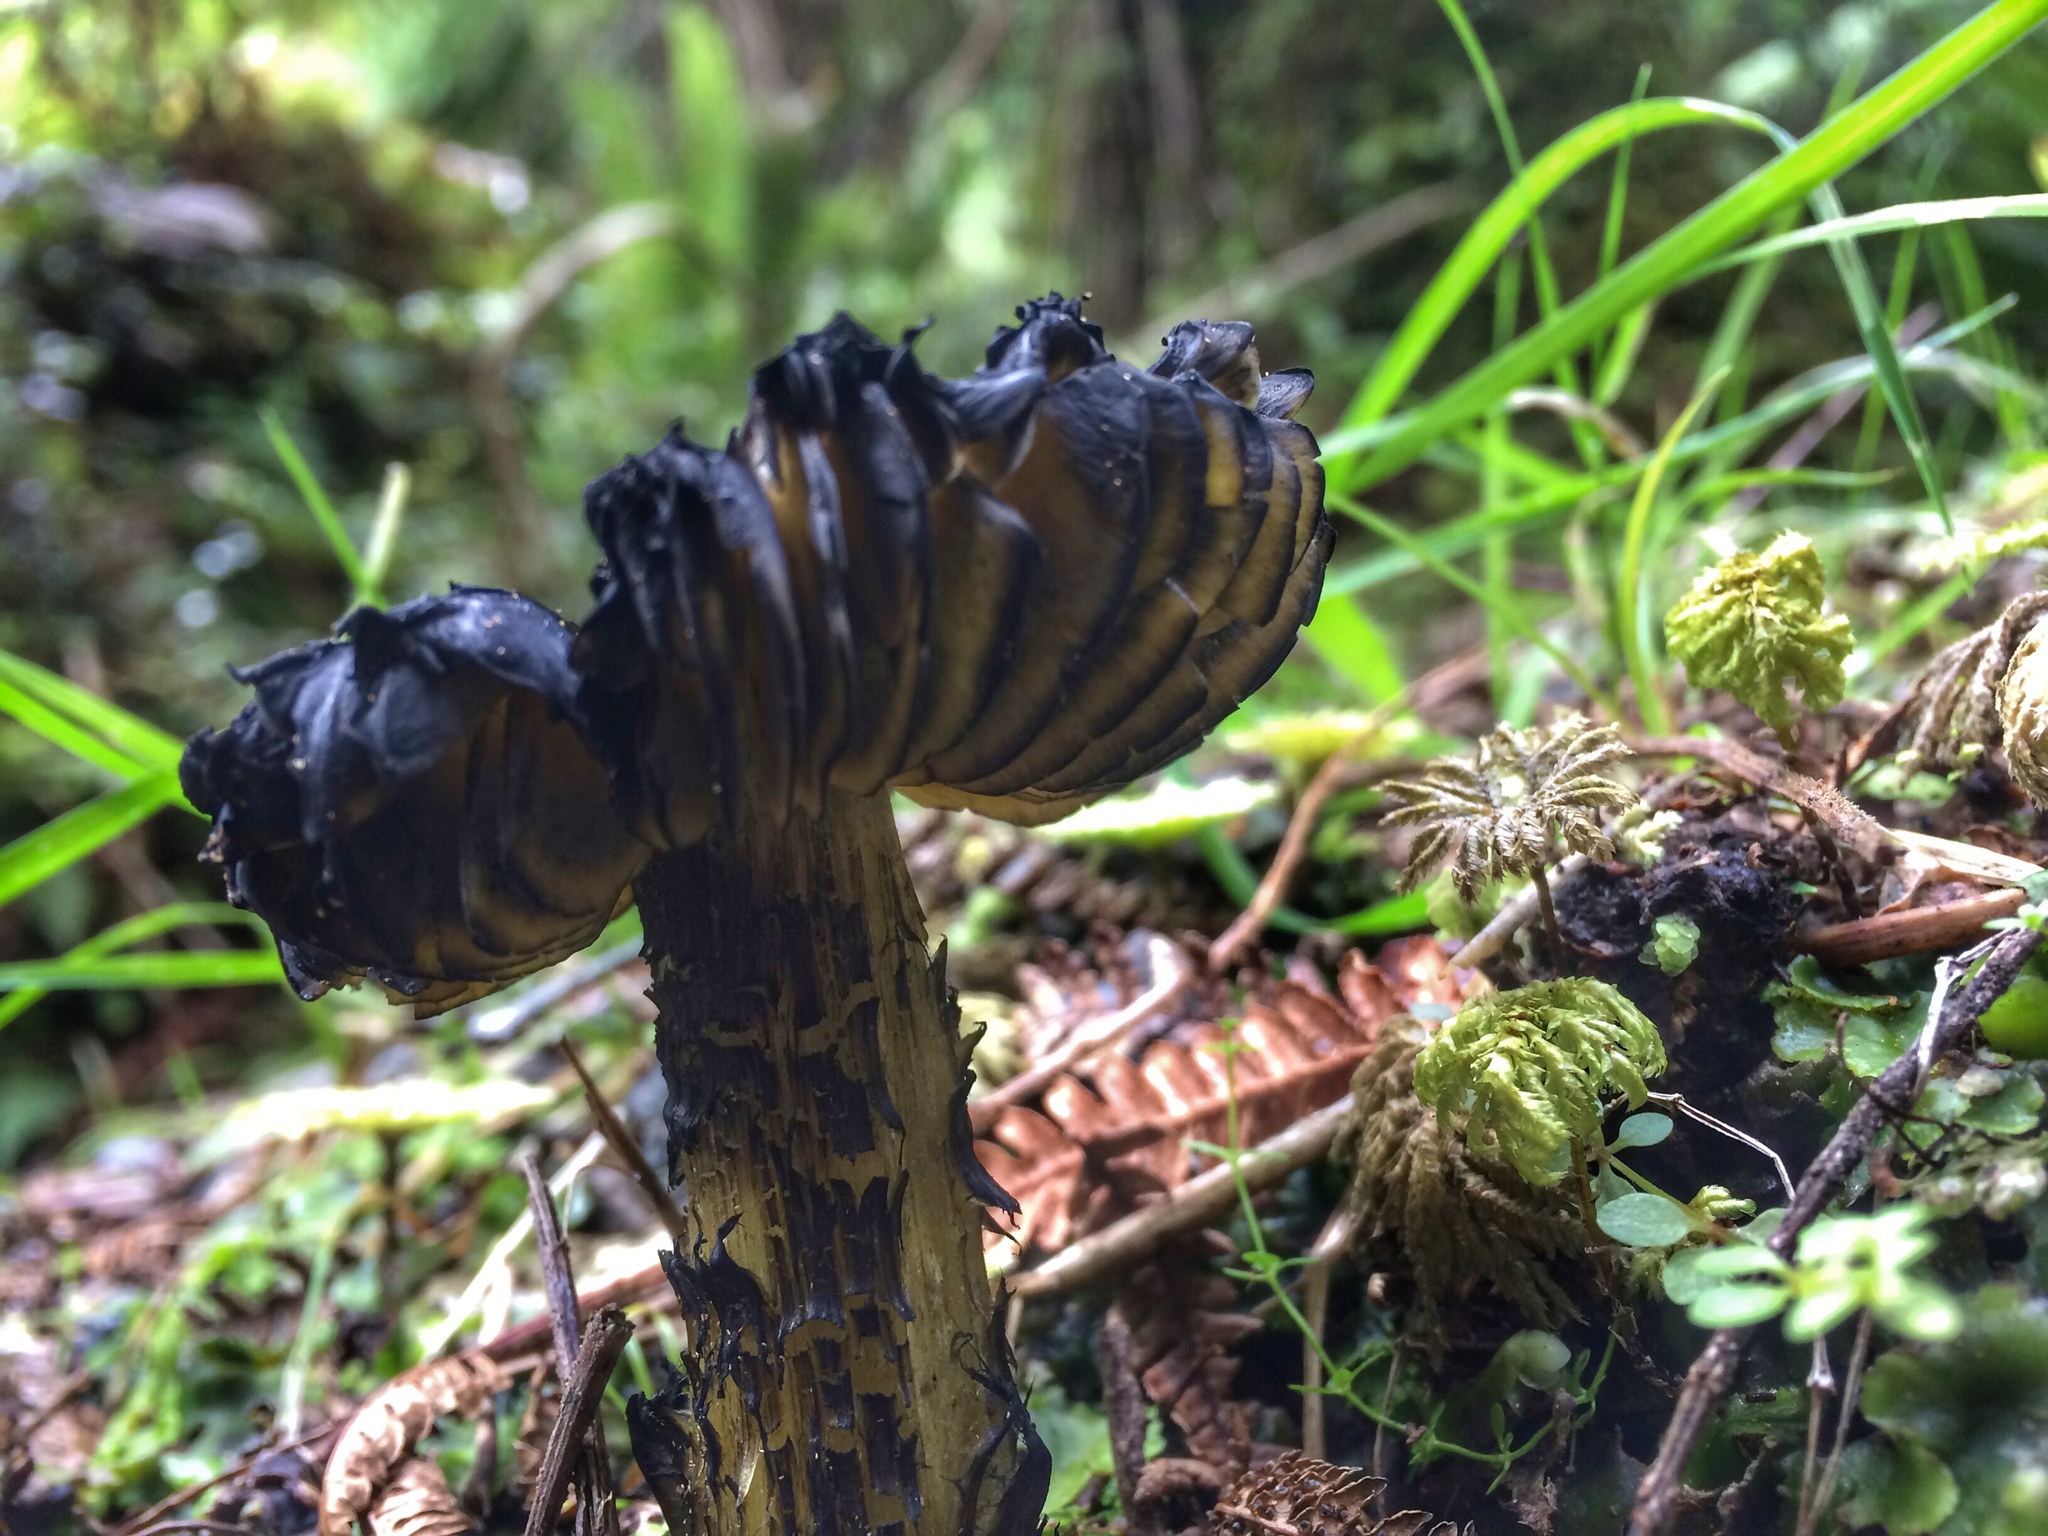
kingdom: Fungi
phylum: Basidiomycota
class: Agaricomycetes
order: Agaricales
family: Hygrophoraceae
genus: Hygrocybe
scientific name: Hygrocybe astatogala
